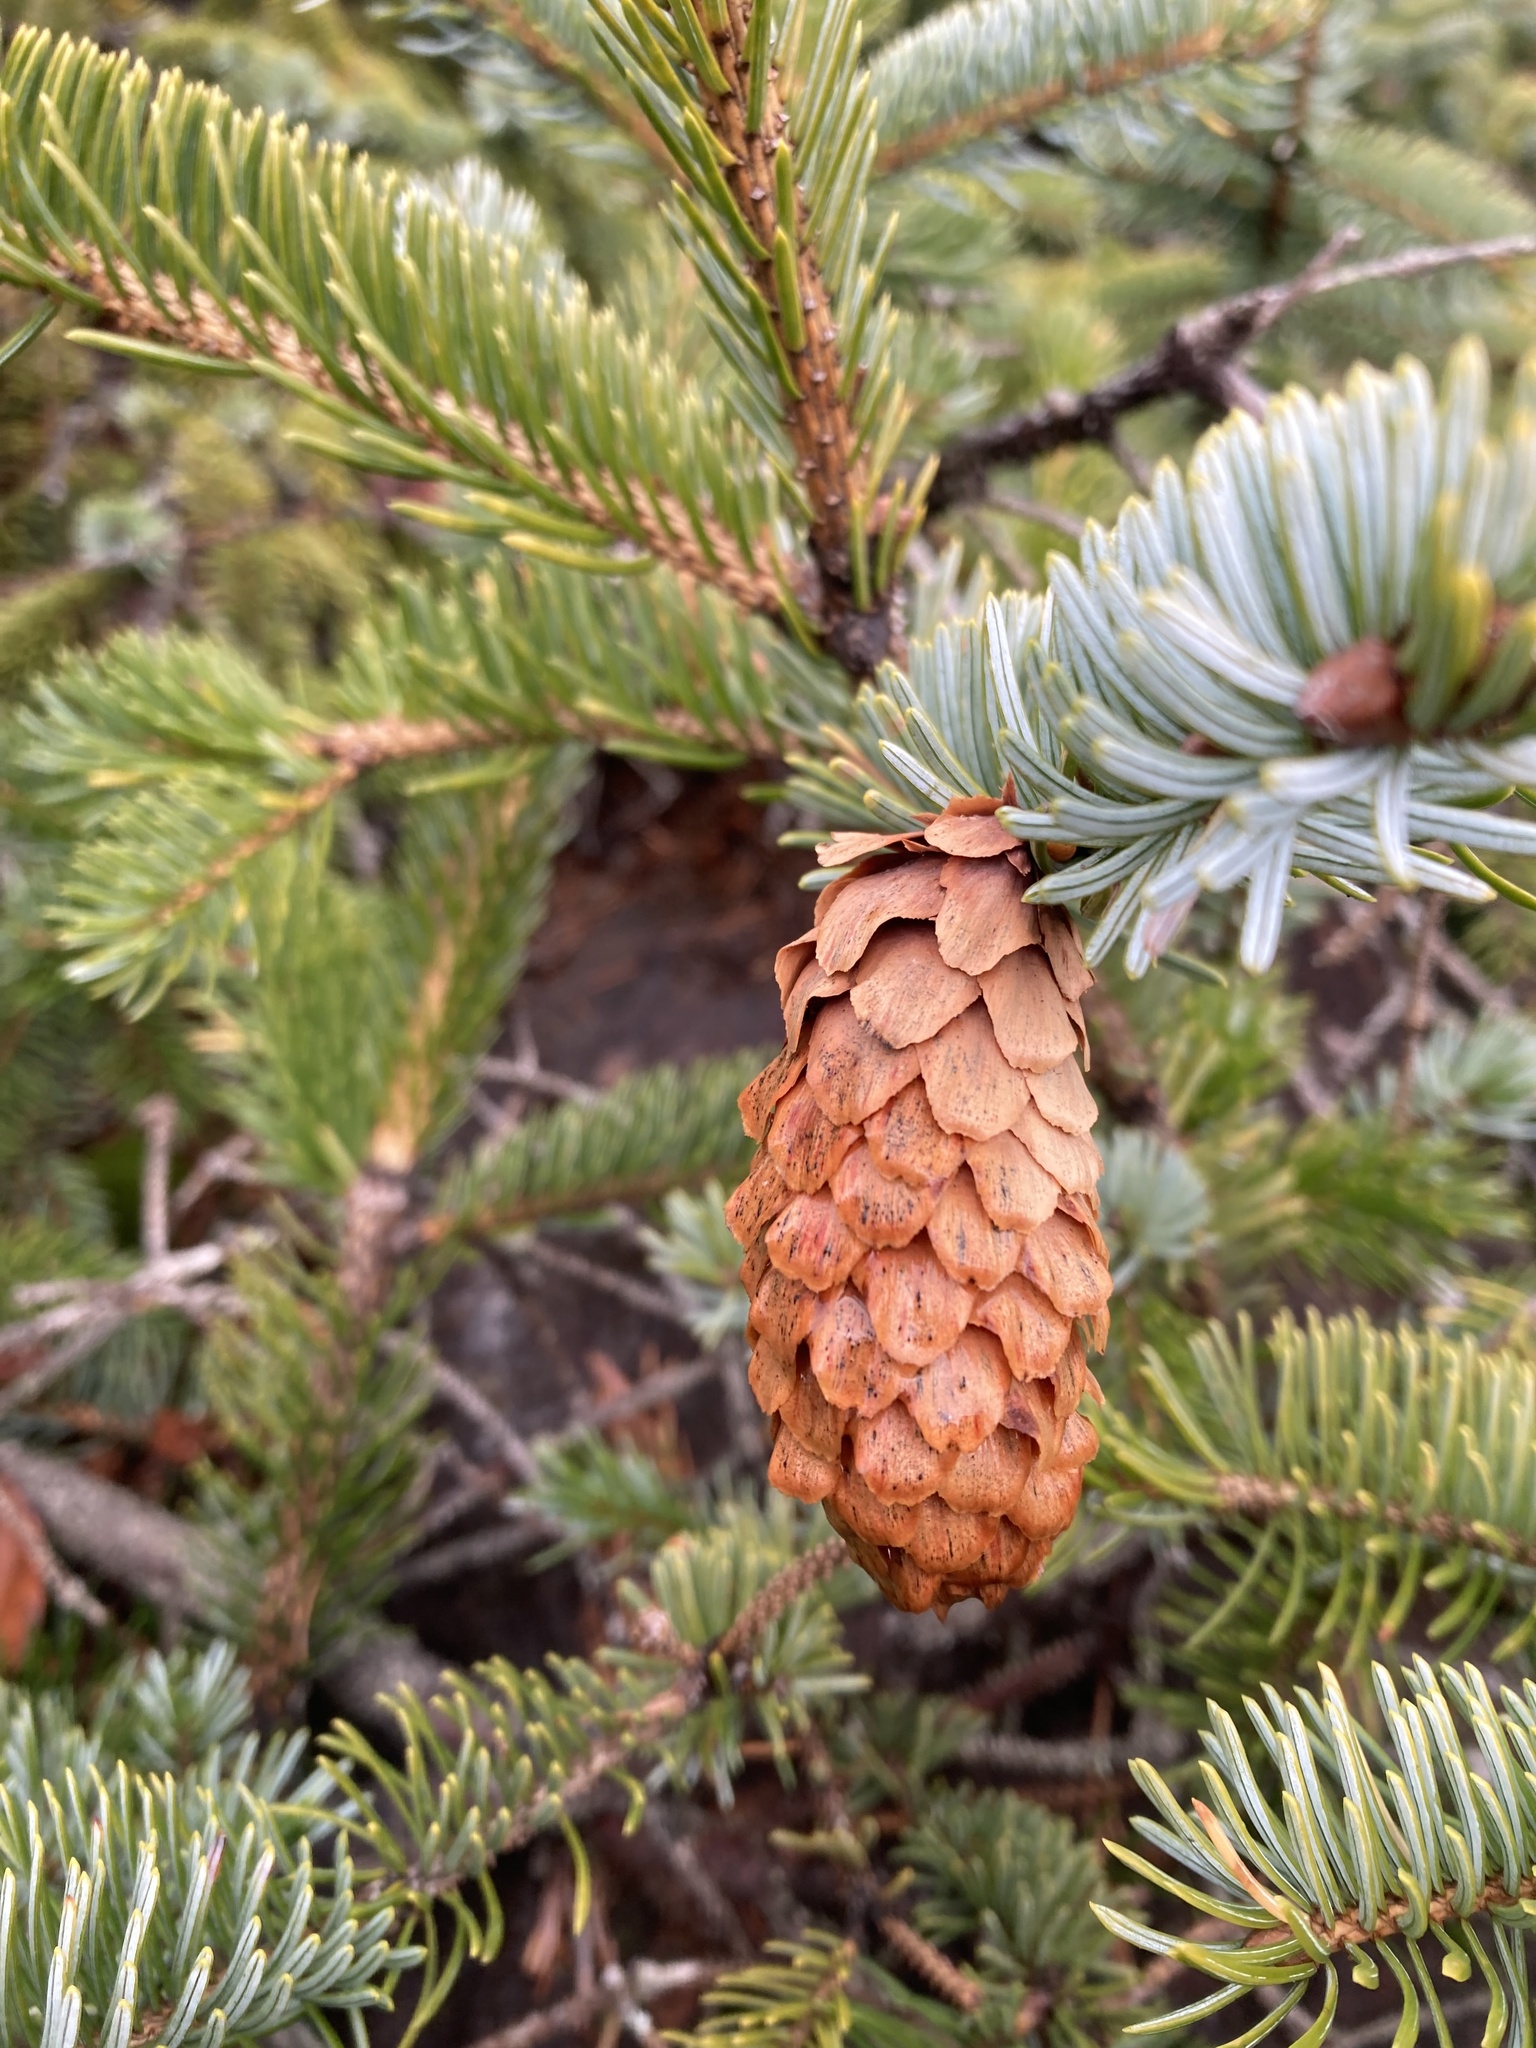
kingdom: Plantae
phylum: Tracheophyta
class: Pinopsida
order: Pinales
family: Pinaceae
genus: Picea
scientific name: Picea sitchensis
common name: Sitka spruce
